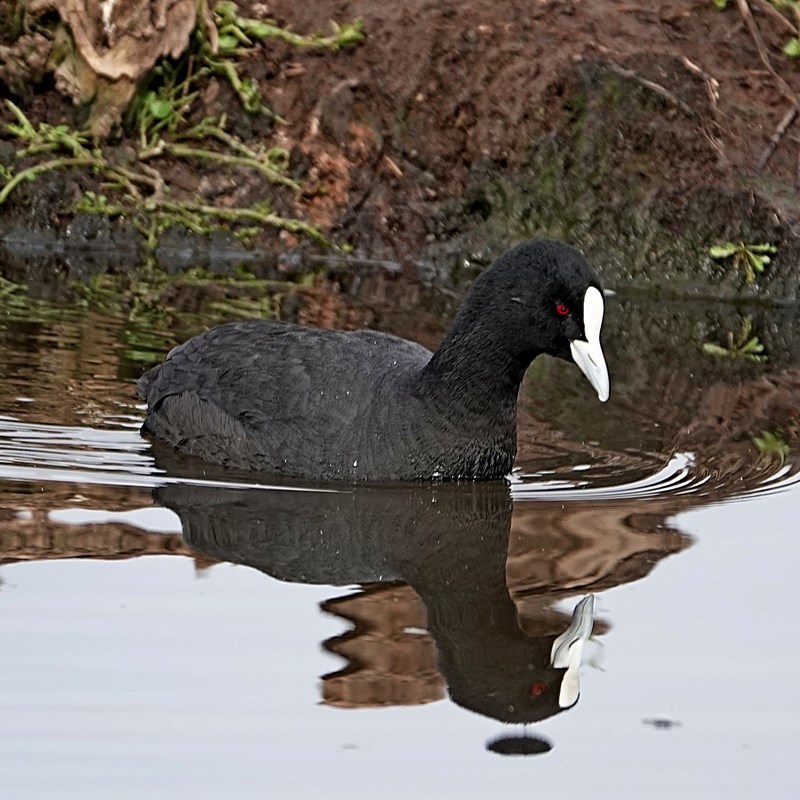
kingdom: Animalia
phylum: Chordata
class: Aves
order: Gruiformes
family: Rallidae
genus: Fulica
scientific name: Fulica atra
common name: Eurasian coot
